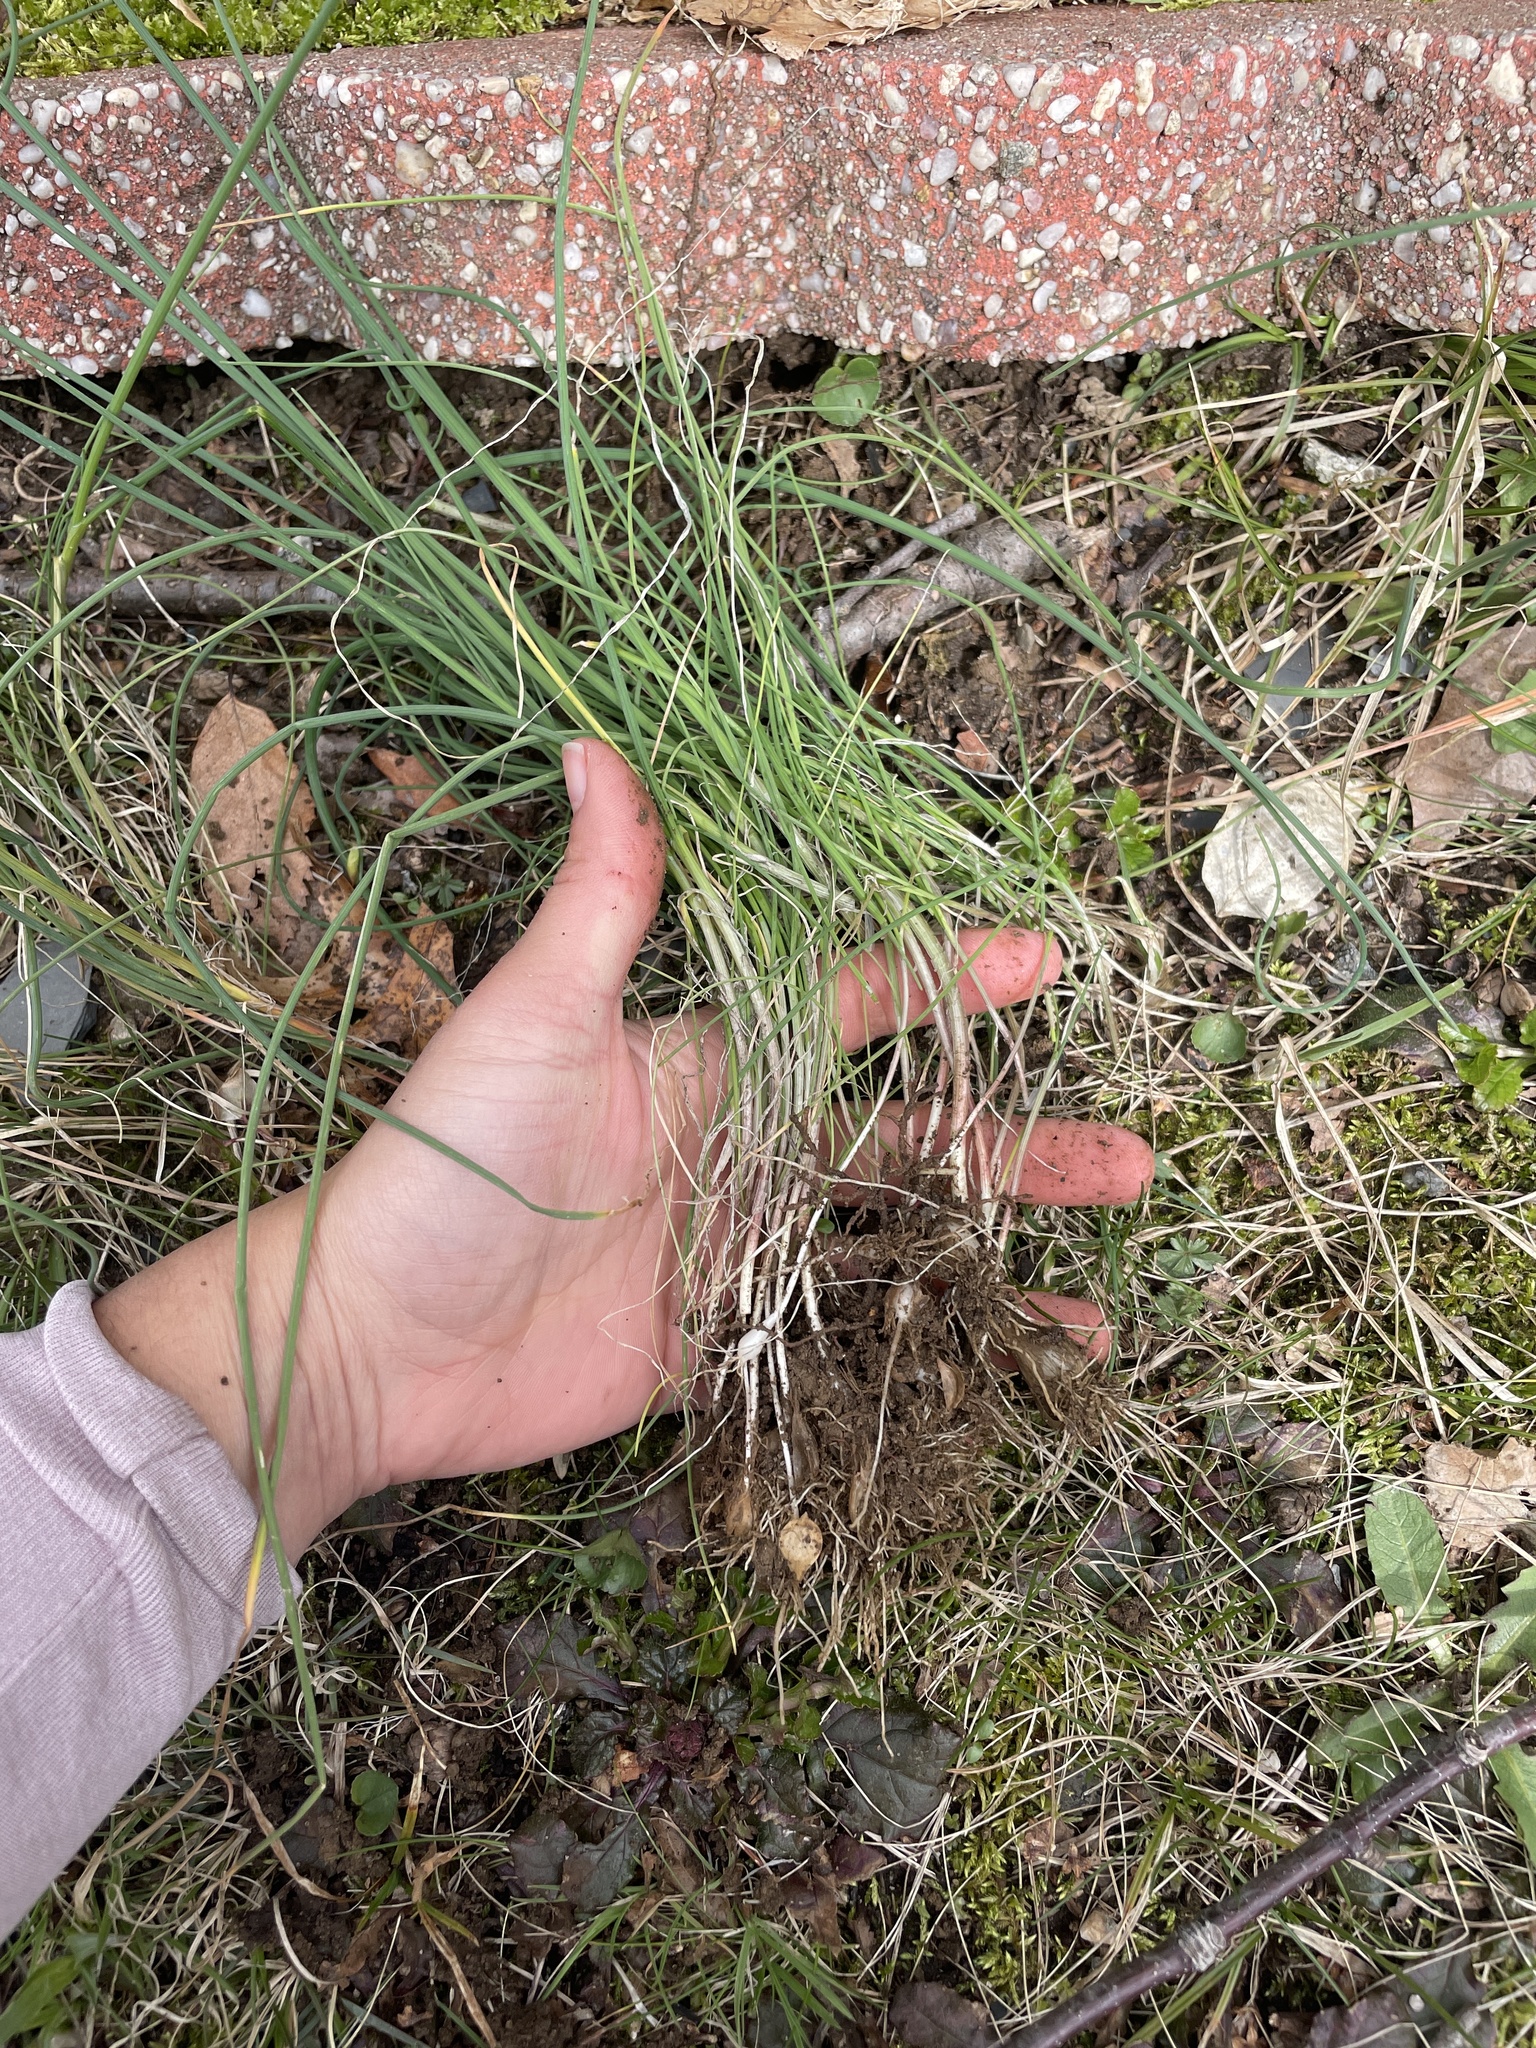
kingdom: Plantae
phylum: Tracheophyta
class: Liliopsida
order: Asparagales
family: Amaryllidaceae
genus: Allium
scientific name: Allium vineale
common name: Crow garlic
